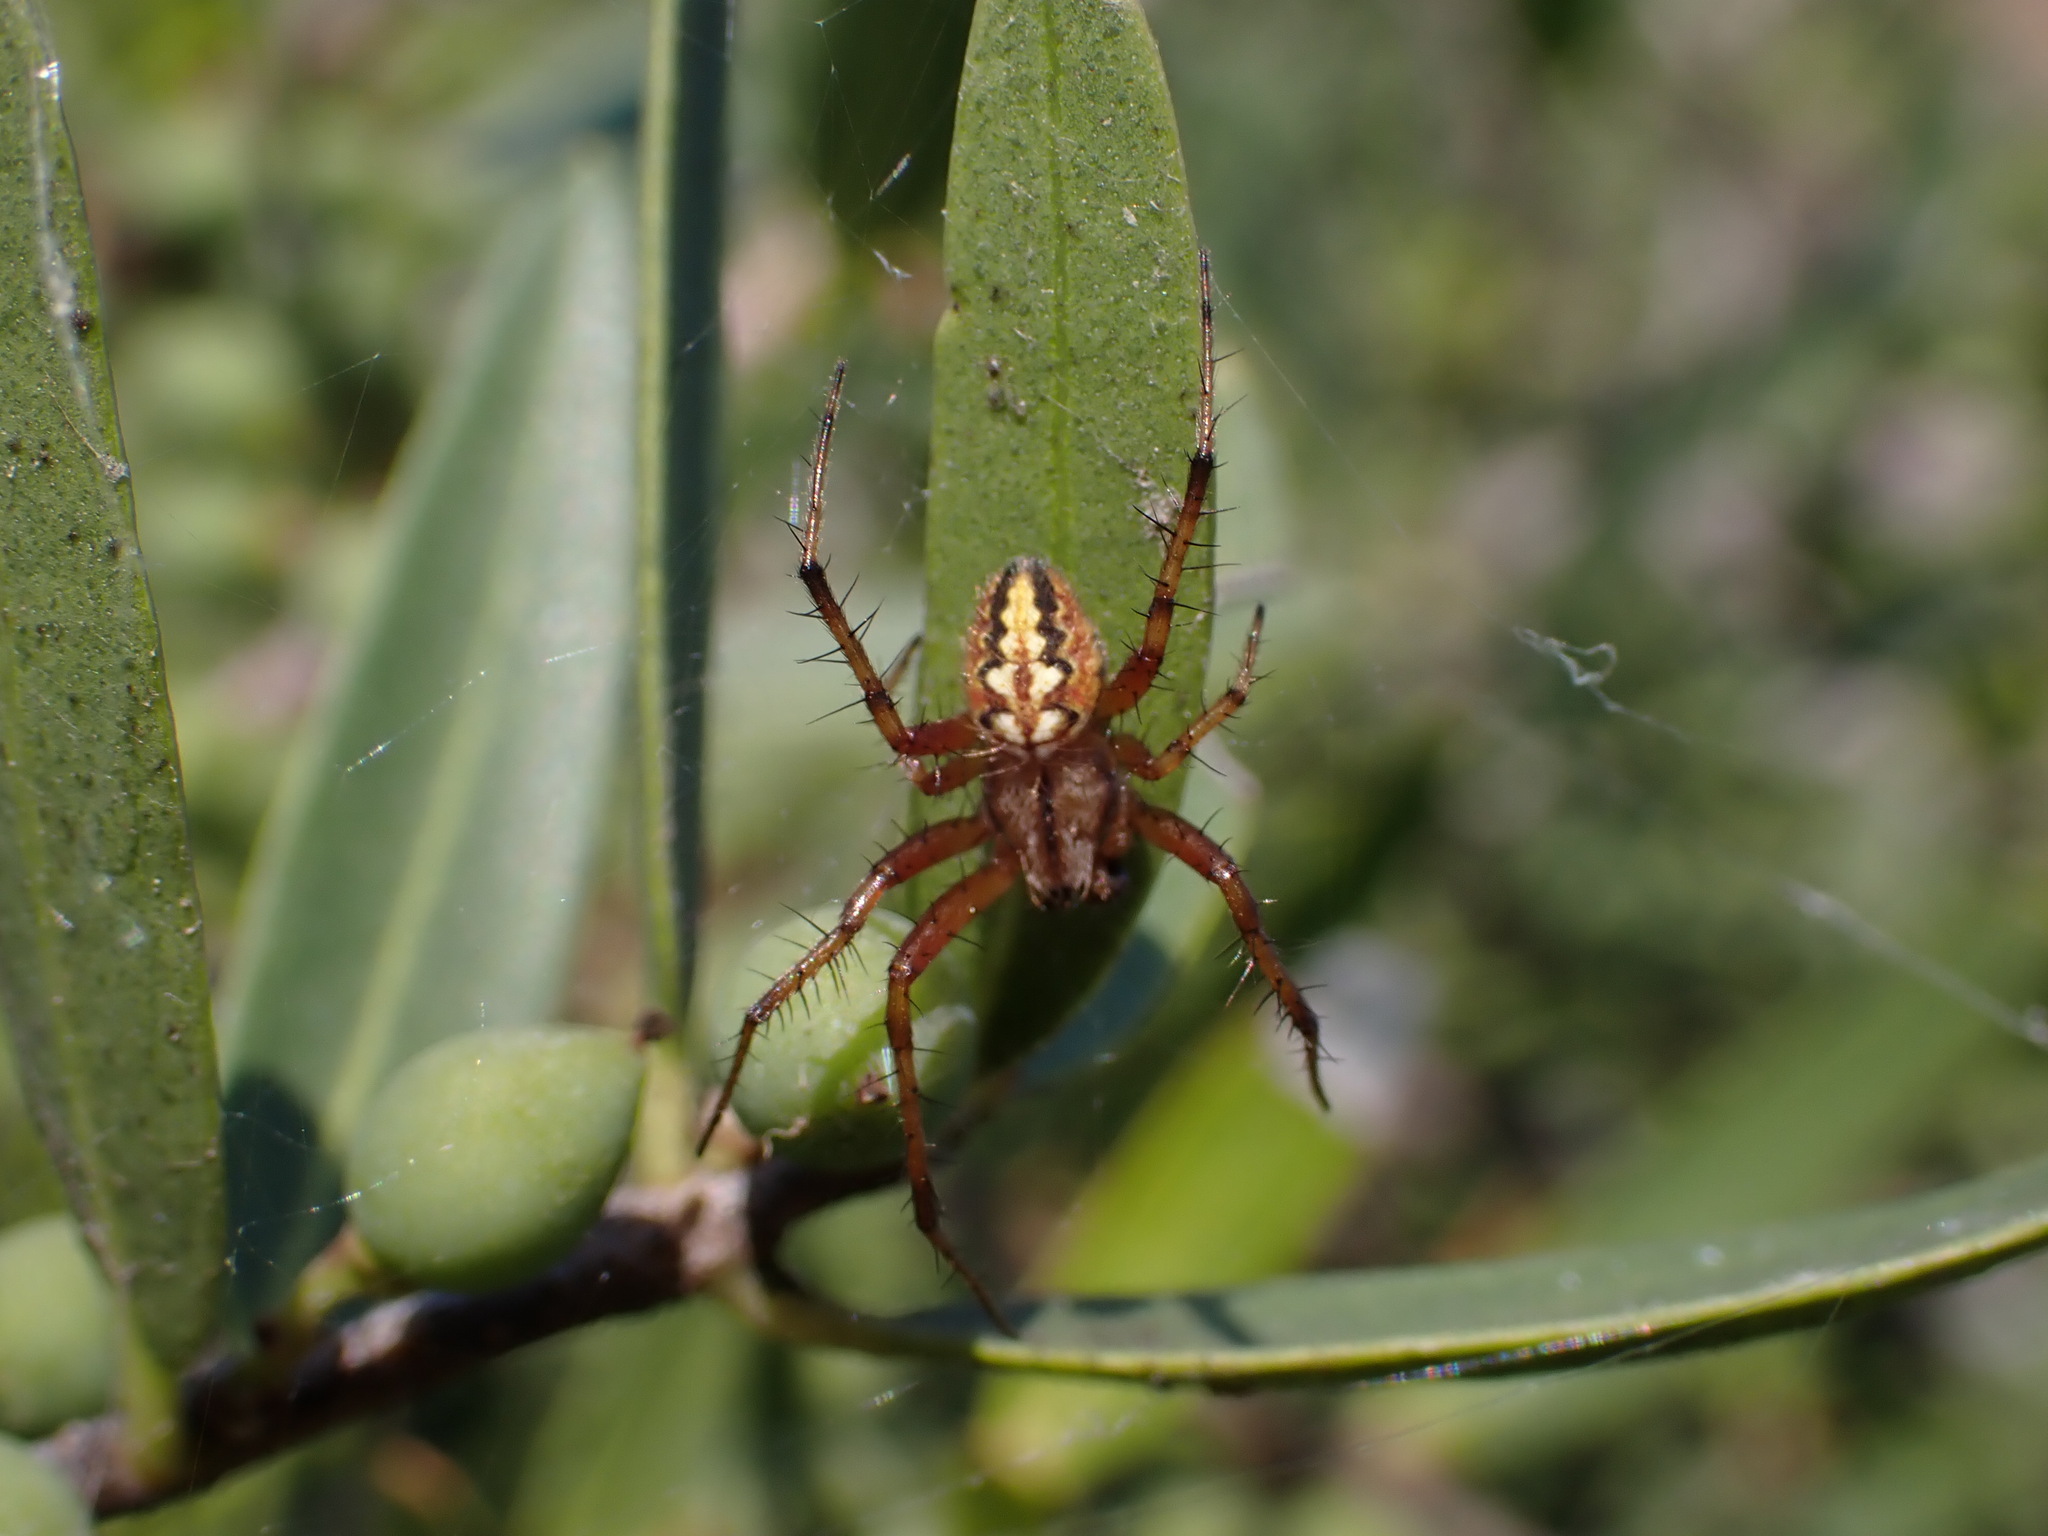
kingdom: Animalia
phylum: Arthropoda
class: Arachnida
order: Araneae
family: Araneidae
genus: Neoscona
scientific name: Neoscona adianta
